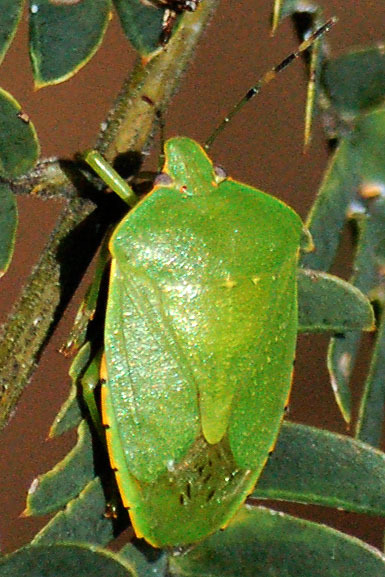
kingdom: Animalia
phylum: Arthropoda
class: Insecta
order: Hemiptera
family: Pentatomidae
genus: Chinavia
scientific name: Chinavia hilaris
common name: Green stink bug
